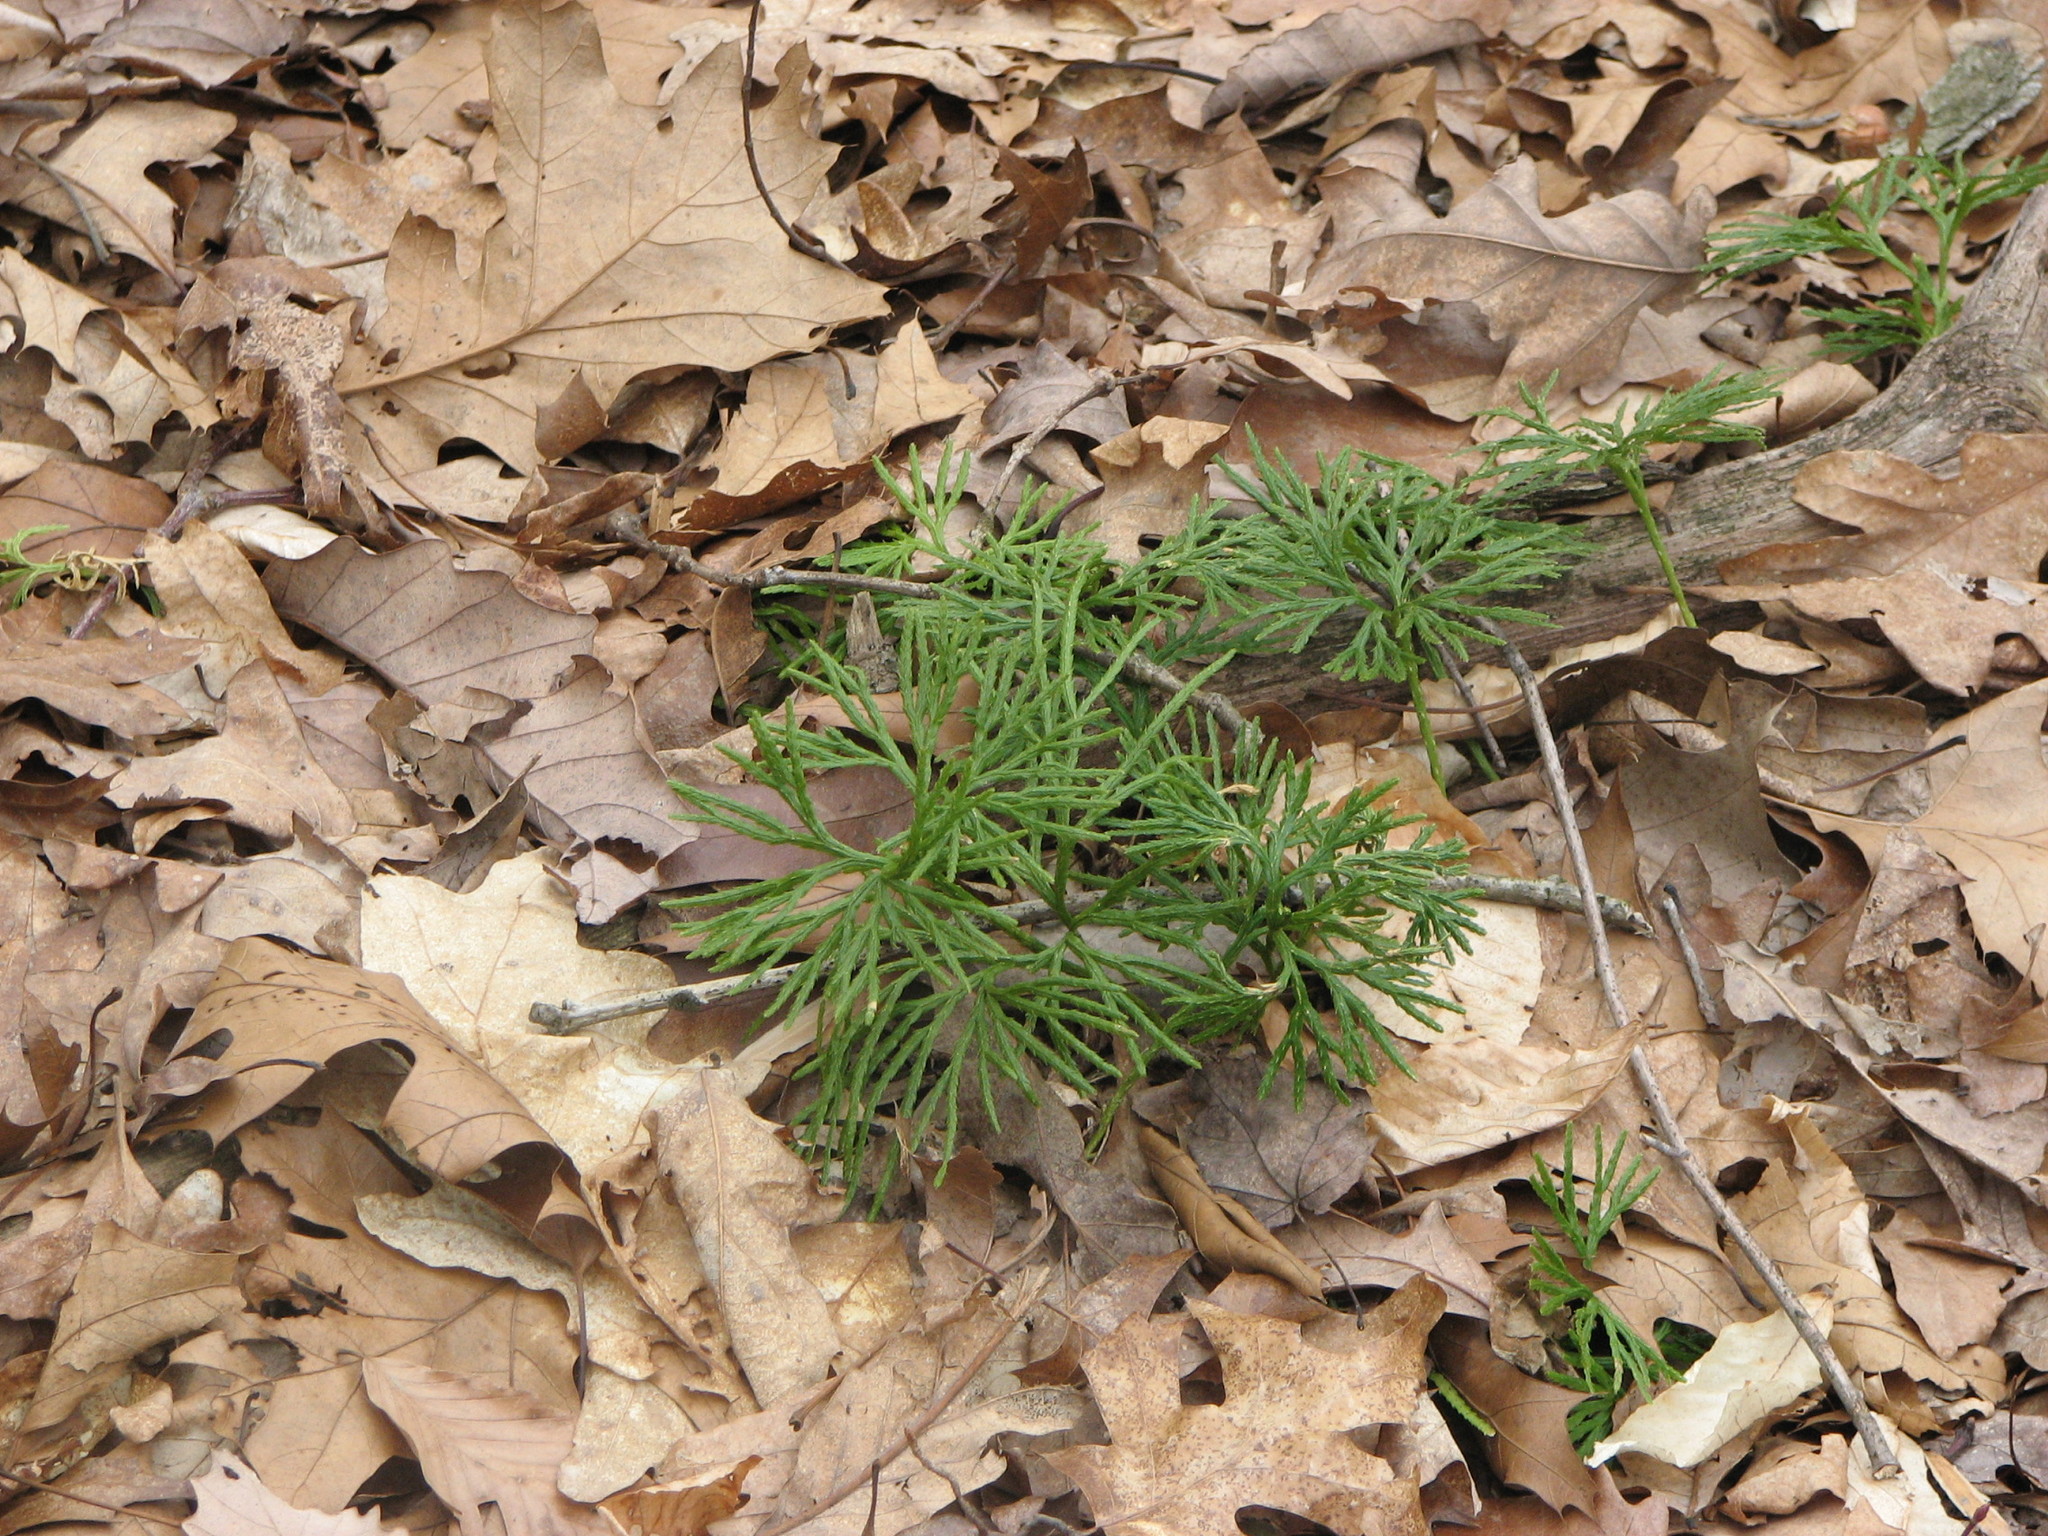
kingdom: Plantae
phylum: Tracheophyta
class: Lycopodiopsida
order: Lycopodiales
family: Lycopodiaceae
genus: Diphasiastrum
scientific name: Diphasiastrum digitatum
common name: Southern running-pine
